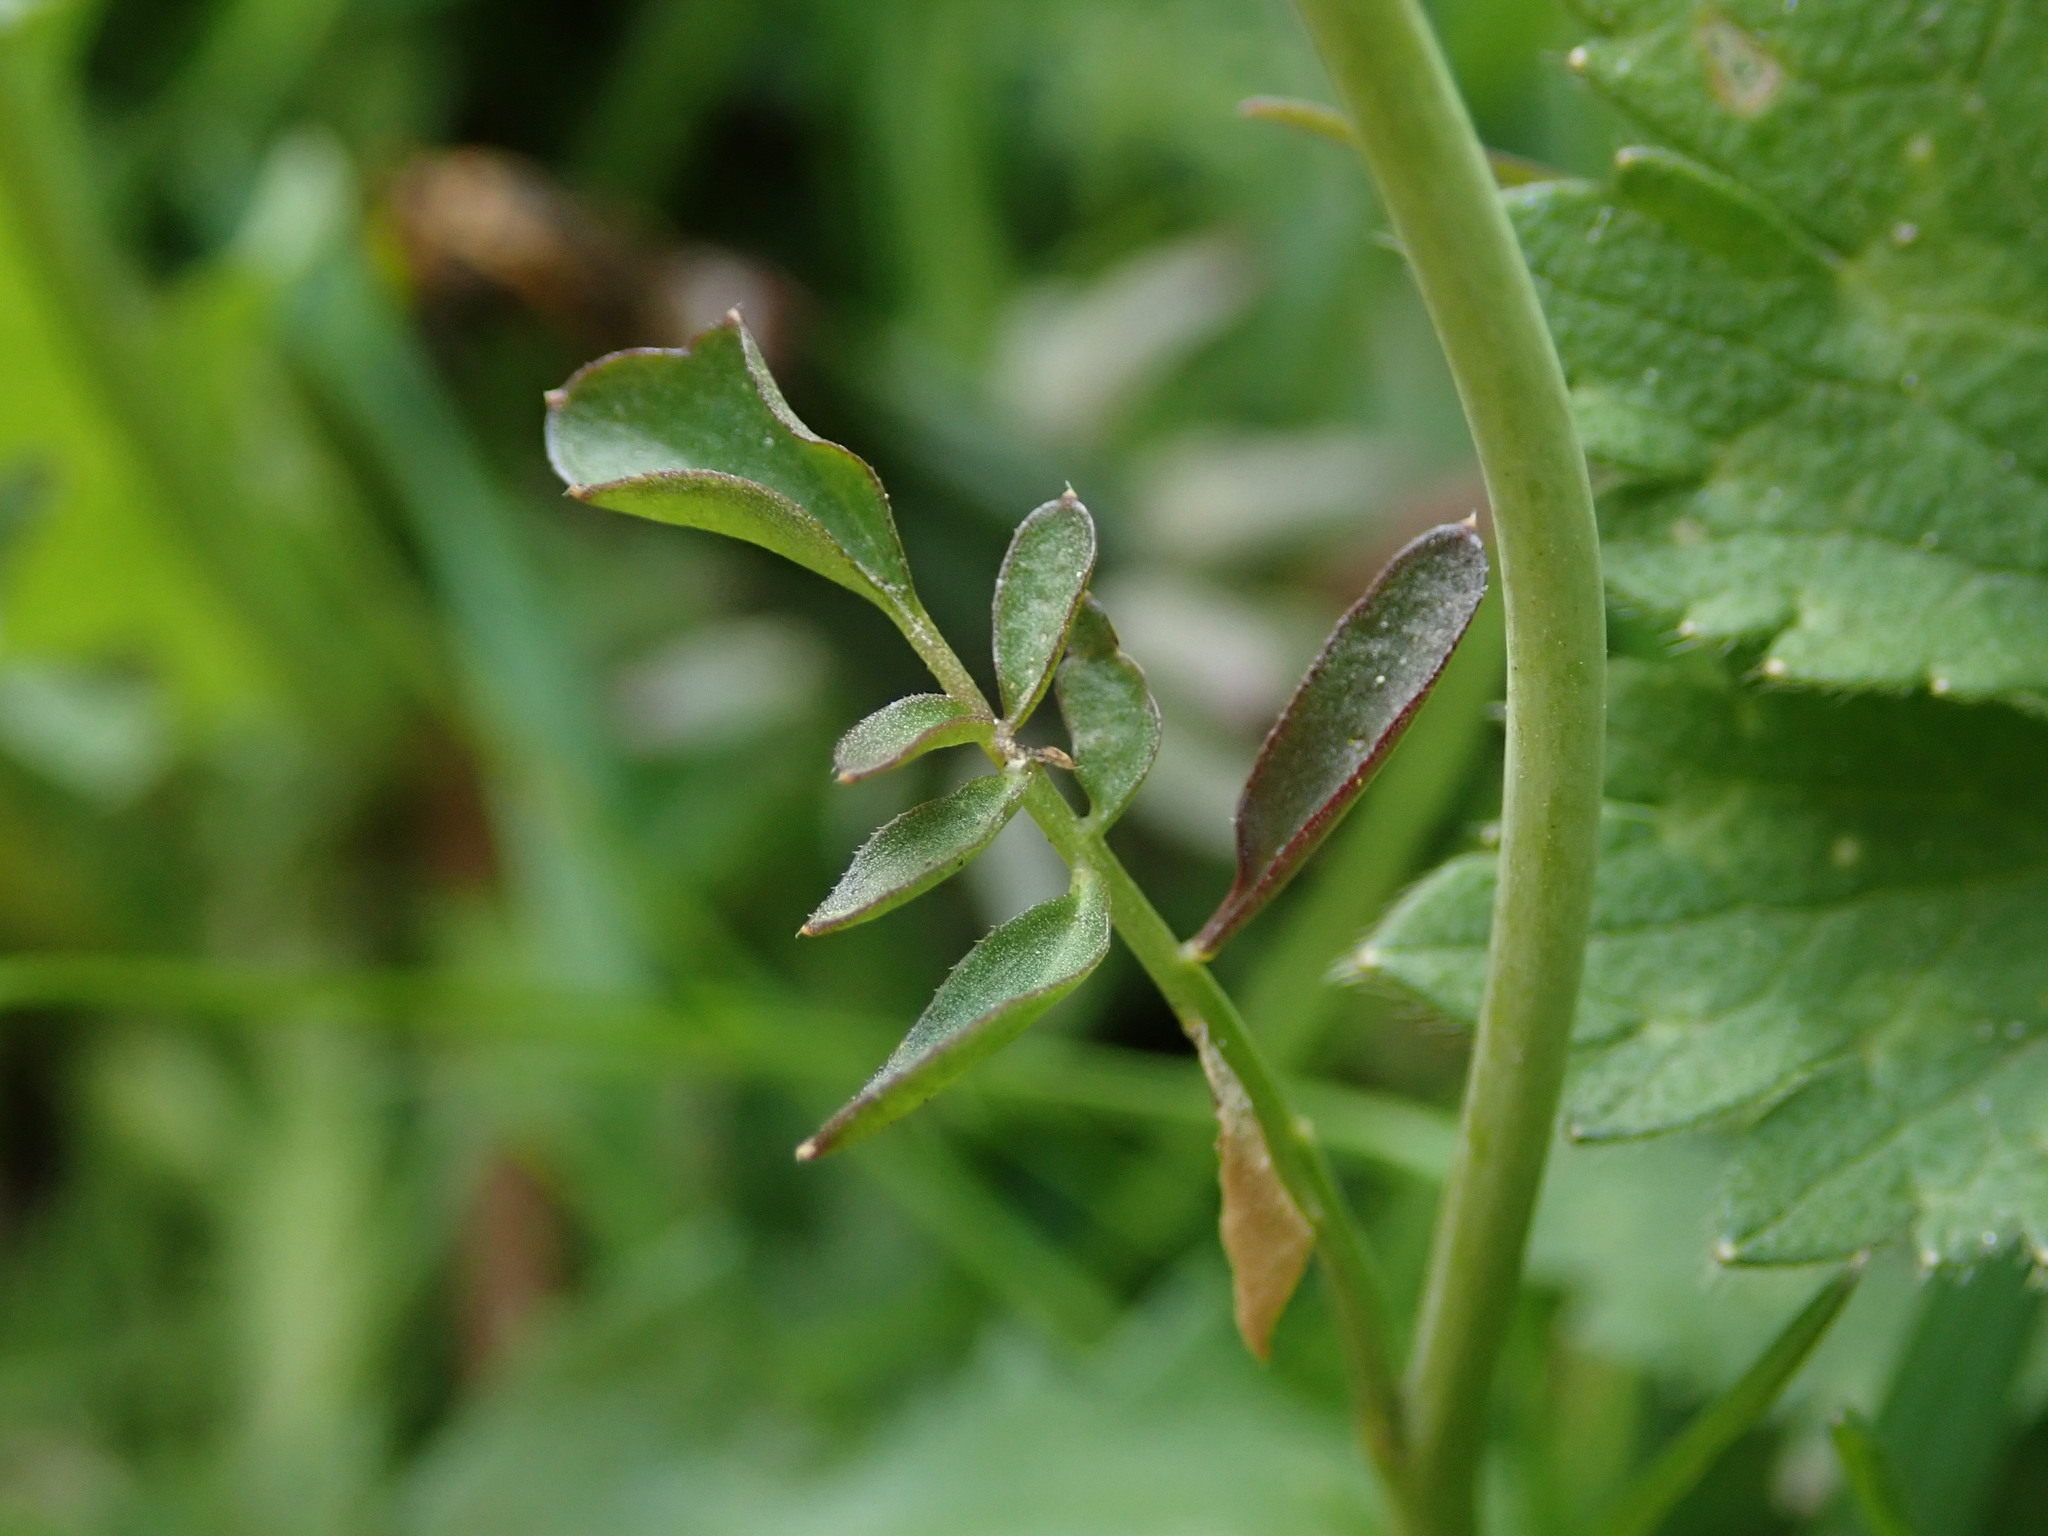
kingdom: Plantae
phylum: Tracheophyta
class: Magnoliopsida
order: Brassicales
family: Brassicaceae
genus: Cardamine
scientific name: Cardamine pratensis
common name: Cuckoo flower
